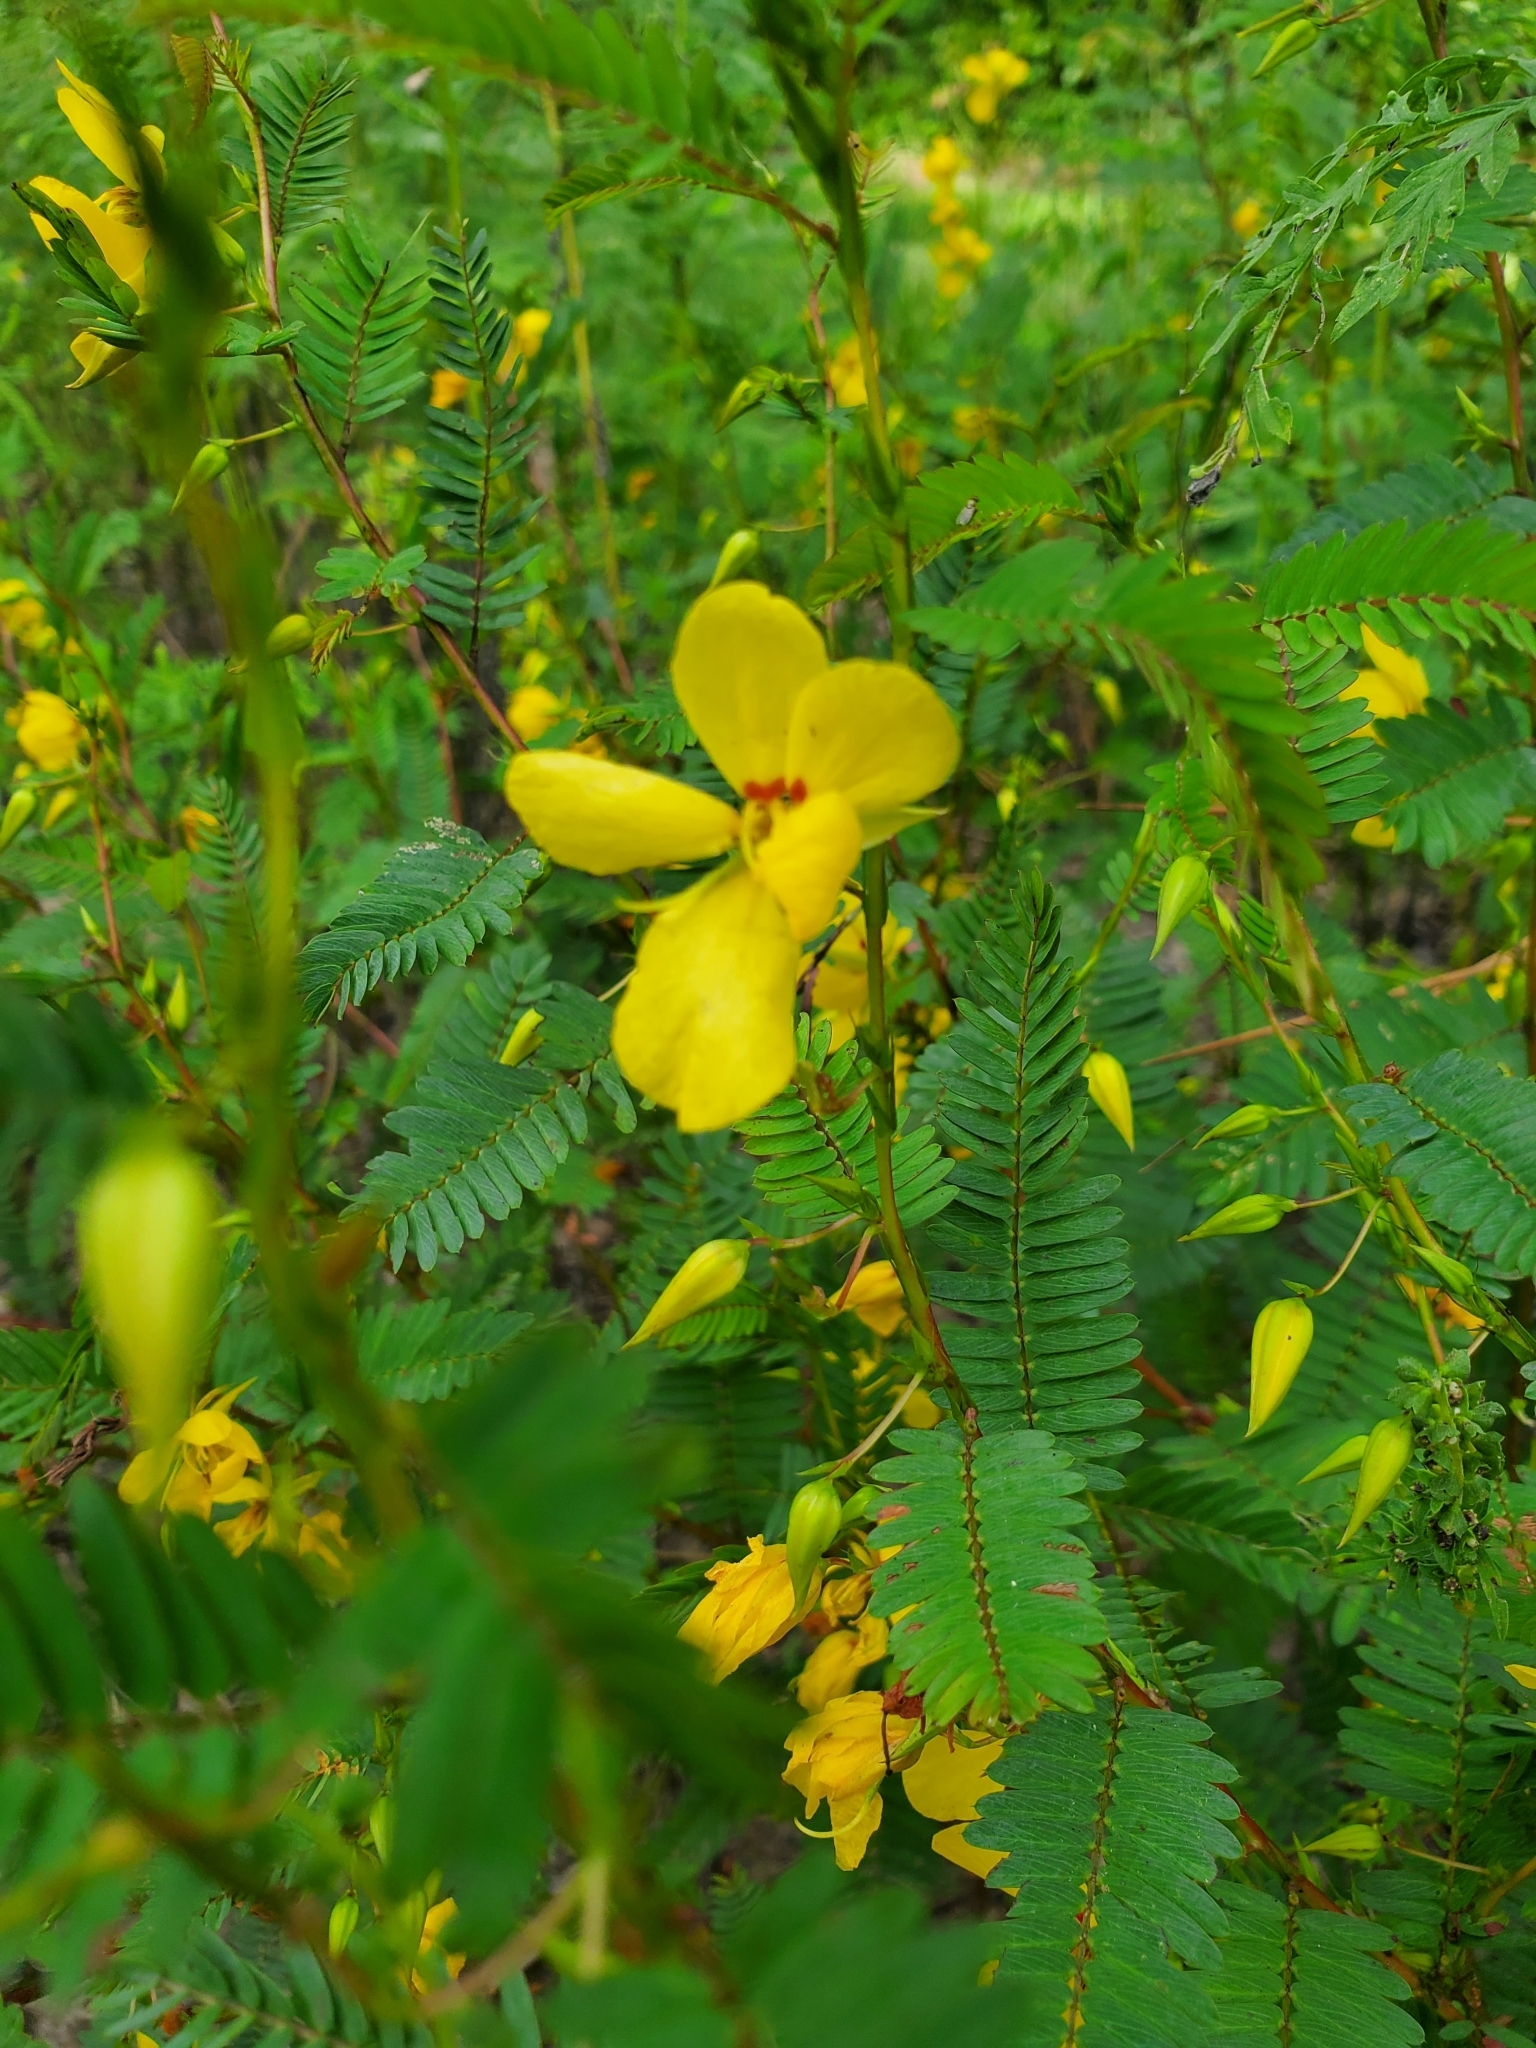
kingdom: Plantae
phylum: Tracheophyta
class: Magnoliopsida
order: Fabales
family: Fabaceae
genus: Chamaecrista
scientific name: Chamaecrista fasciculata
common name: Golden cassia
